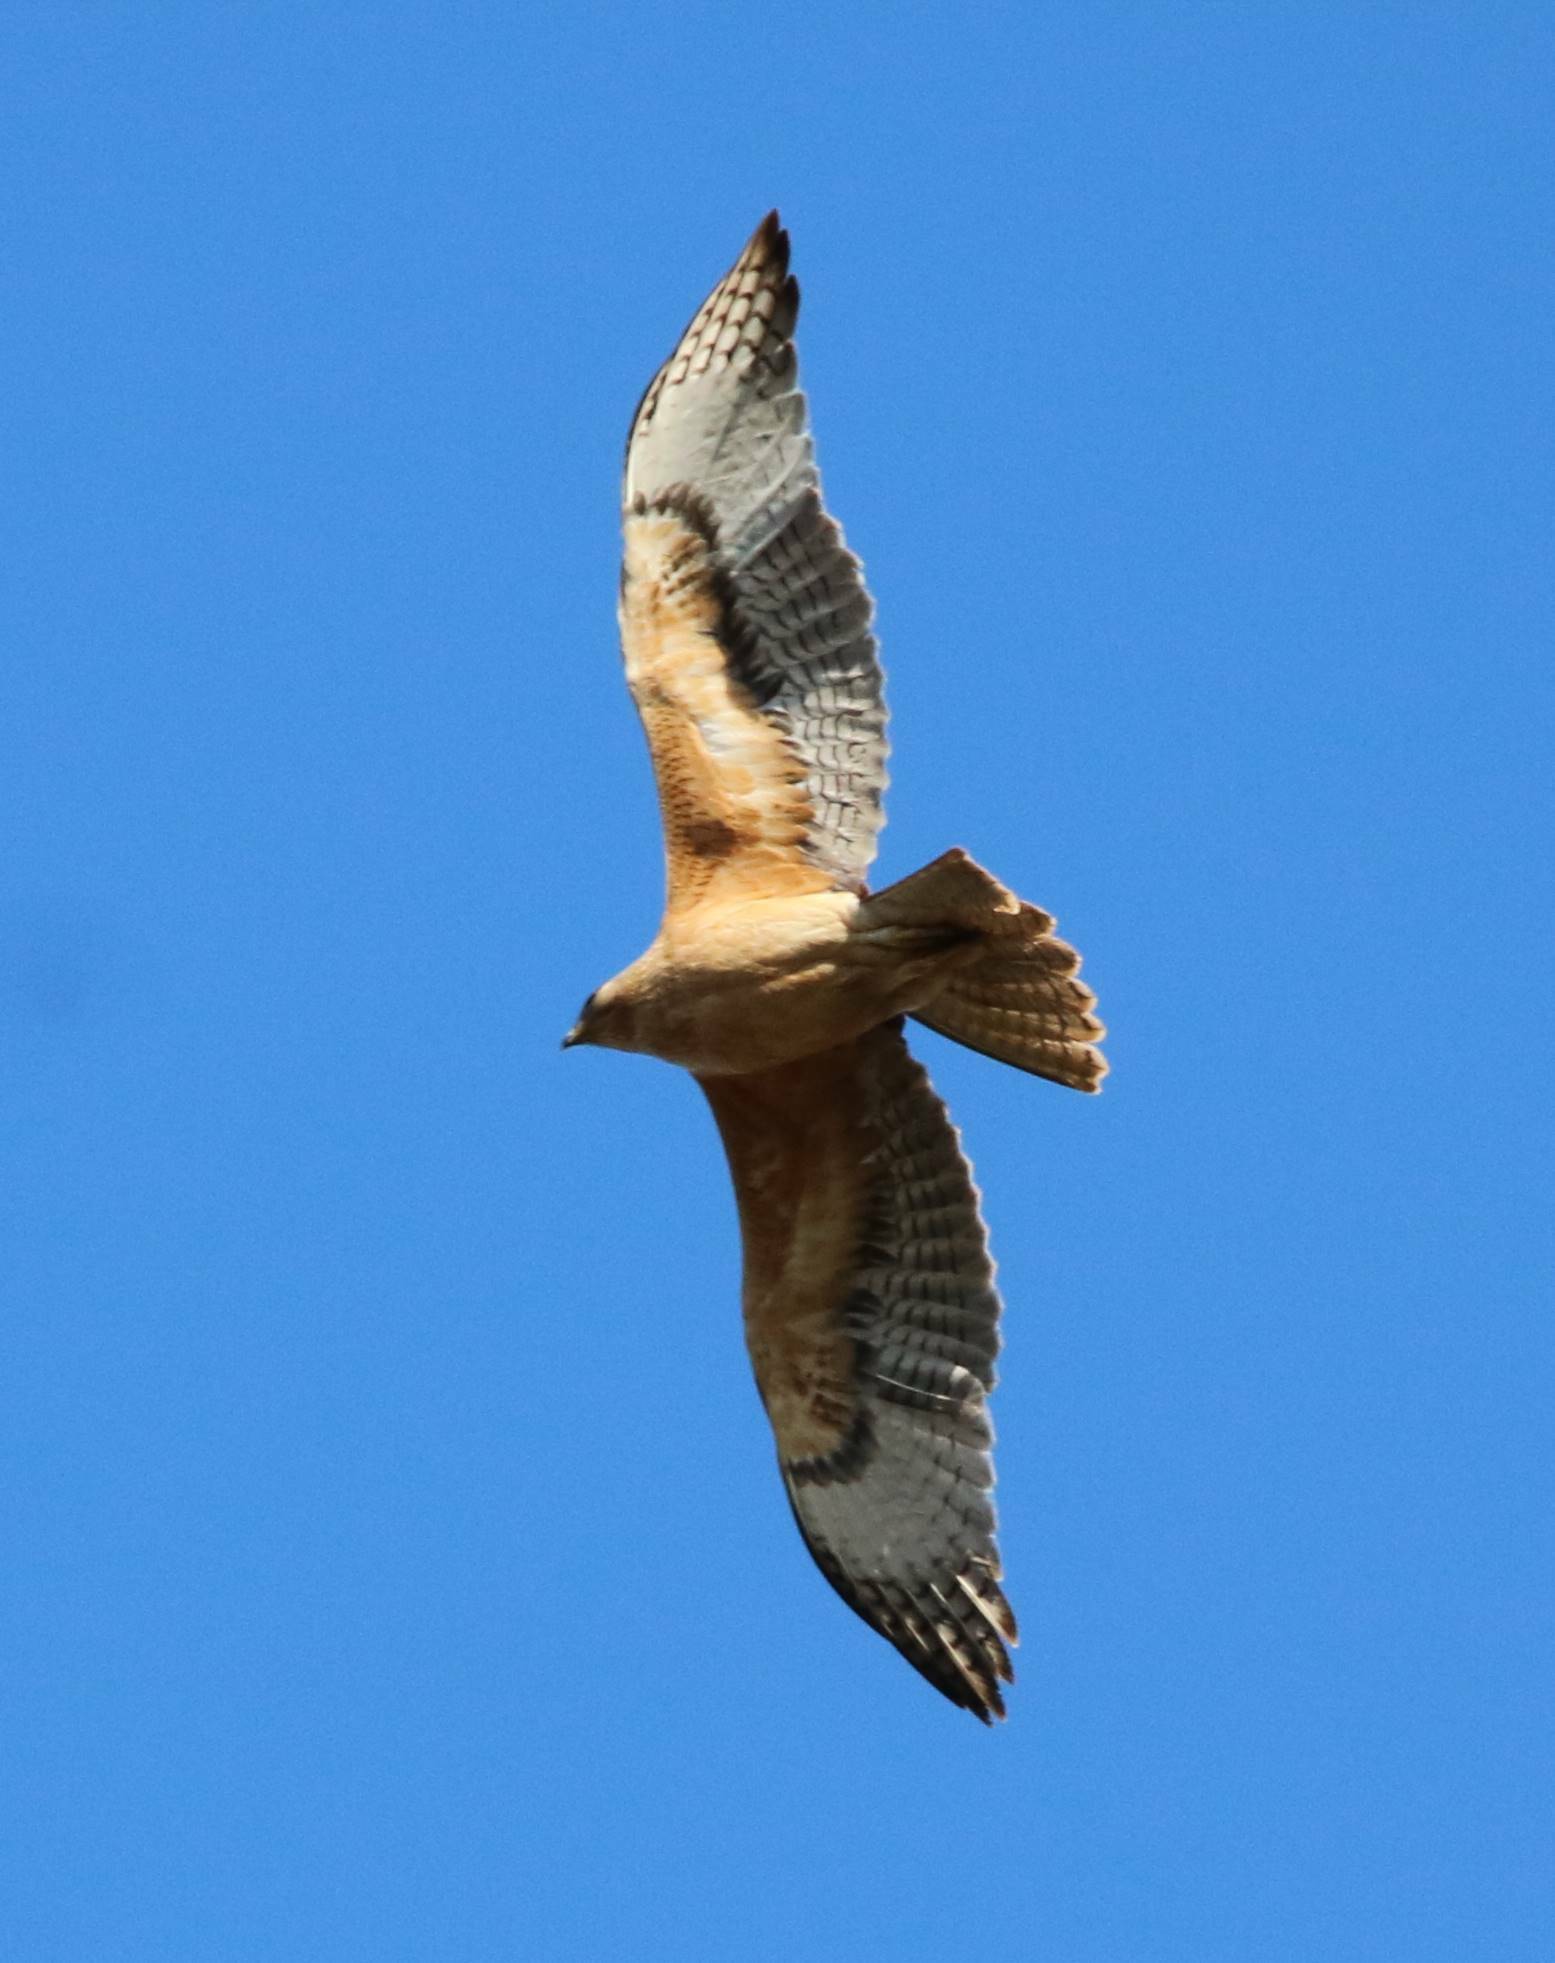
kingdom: Animalia
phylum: Chordata
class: Aves
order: Accipitriformes
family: Accipitridae
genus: Aquila
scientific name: Aquila fasciata
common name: Bonelli's eagle
